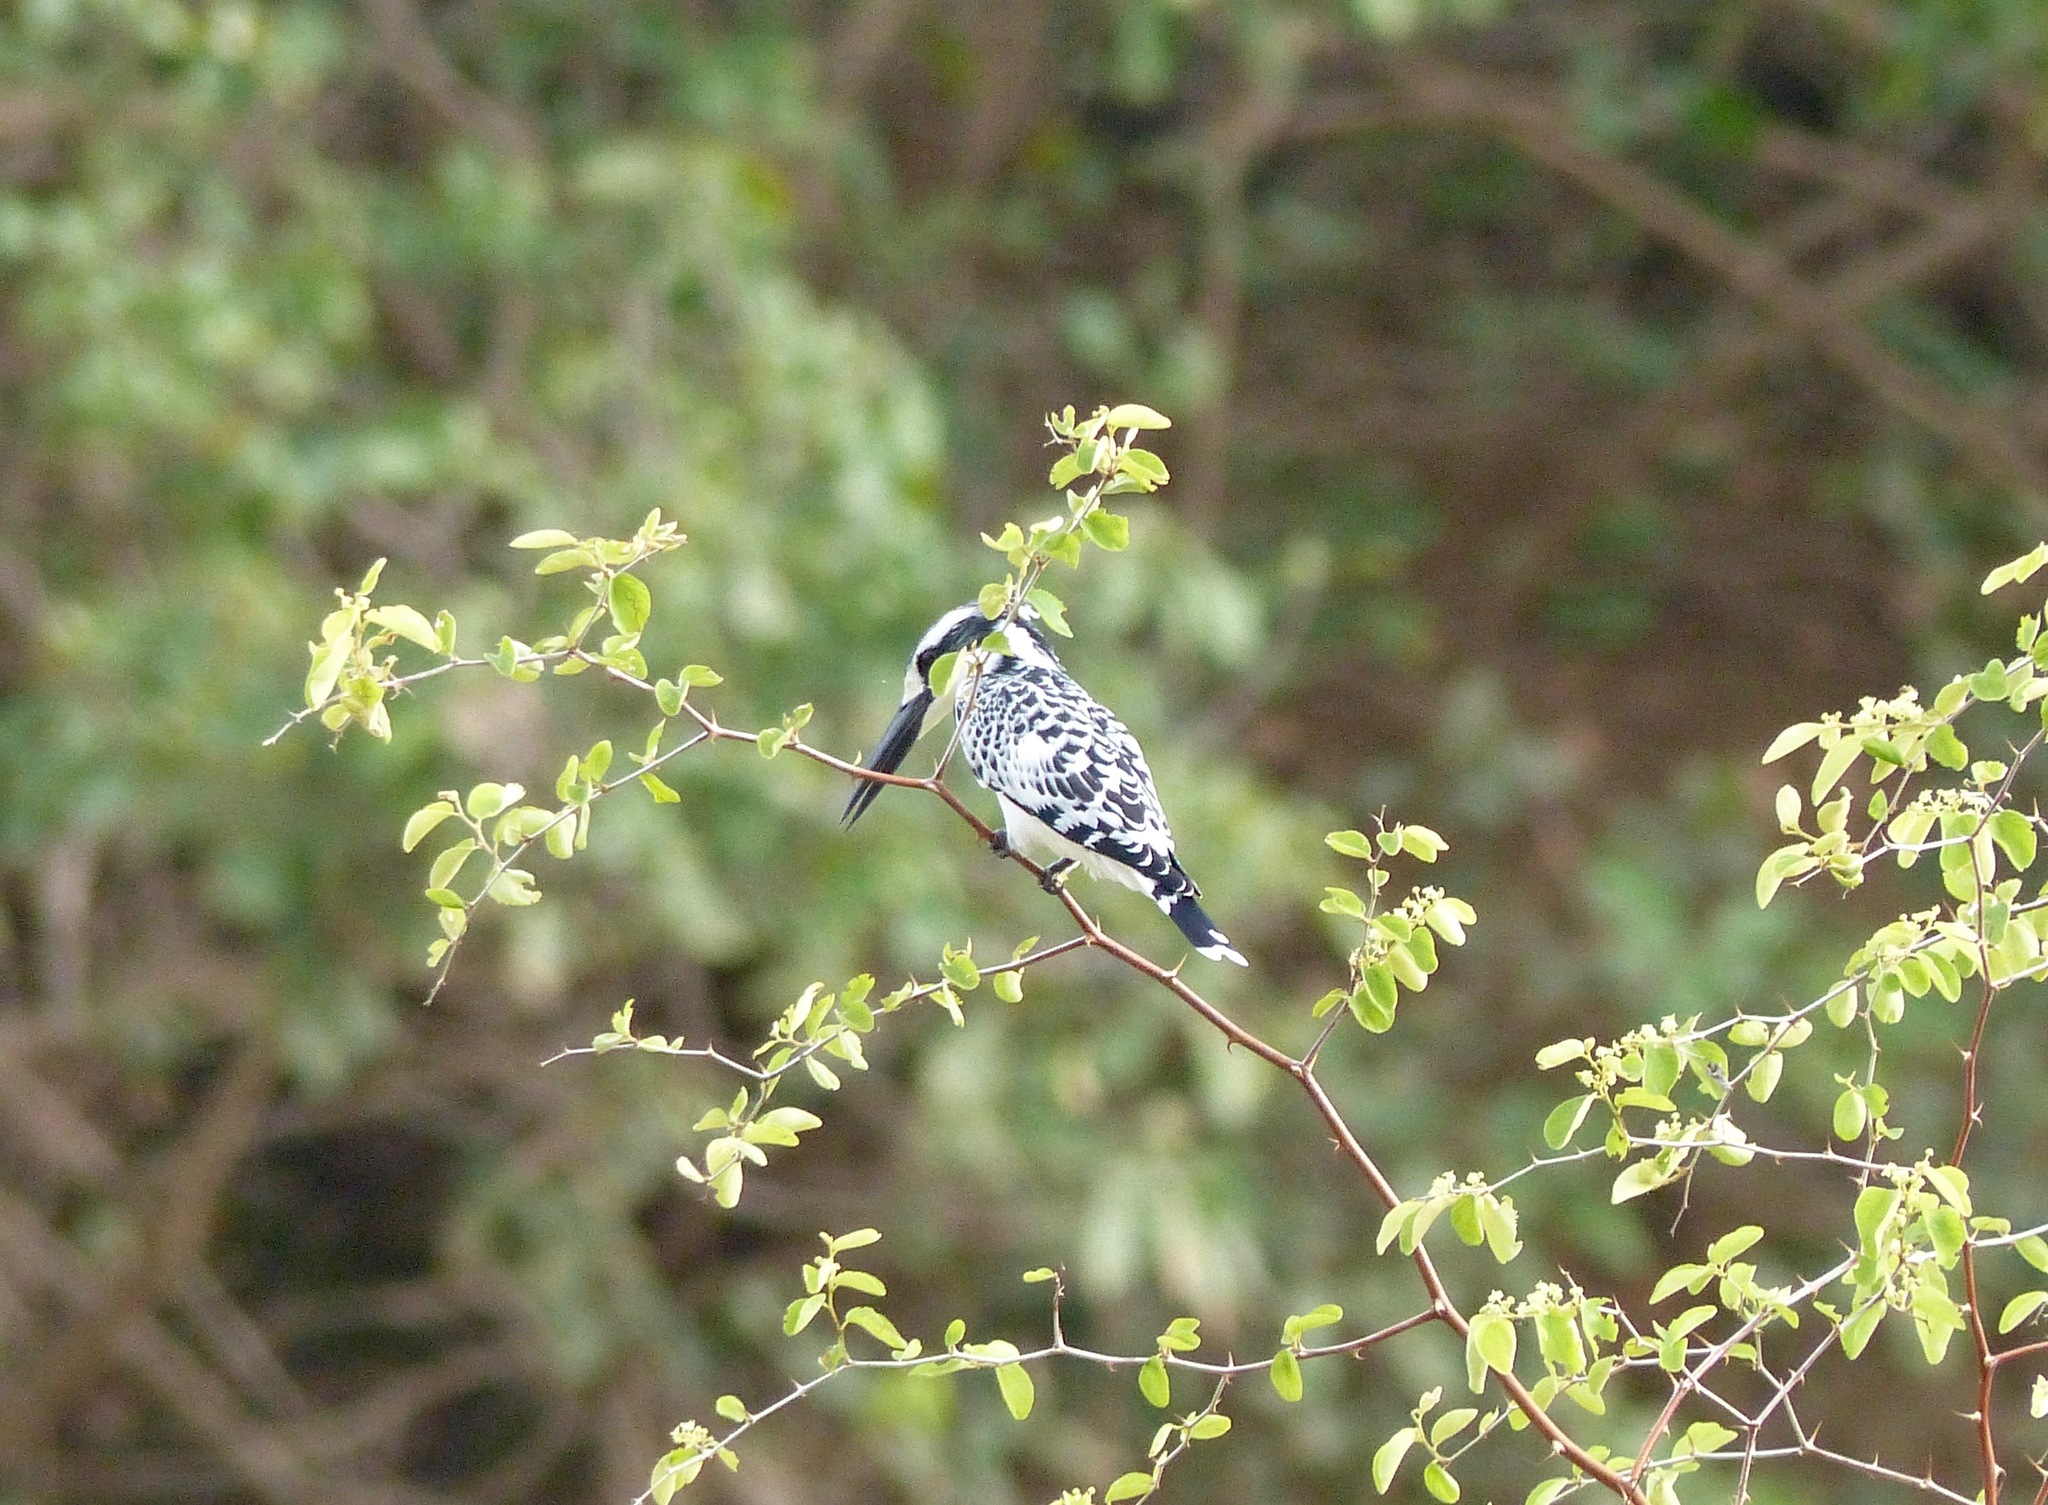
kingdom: Animalia
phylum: Chordata
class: Aves
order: Coraciiformes
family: Alcedinidae
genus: Ceryle
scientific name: Ceryle rudis
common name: Pied kingfisher
